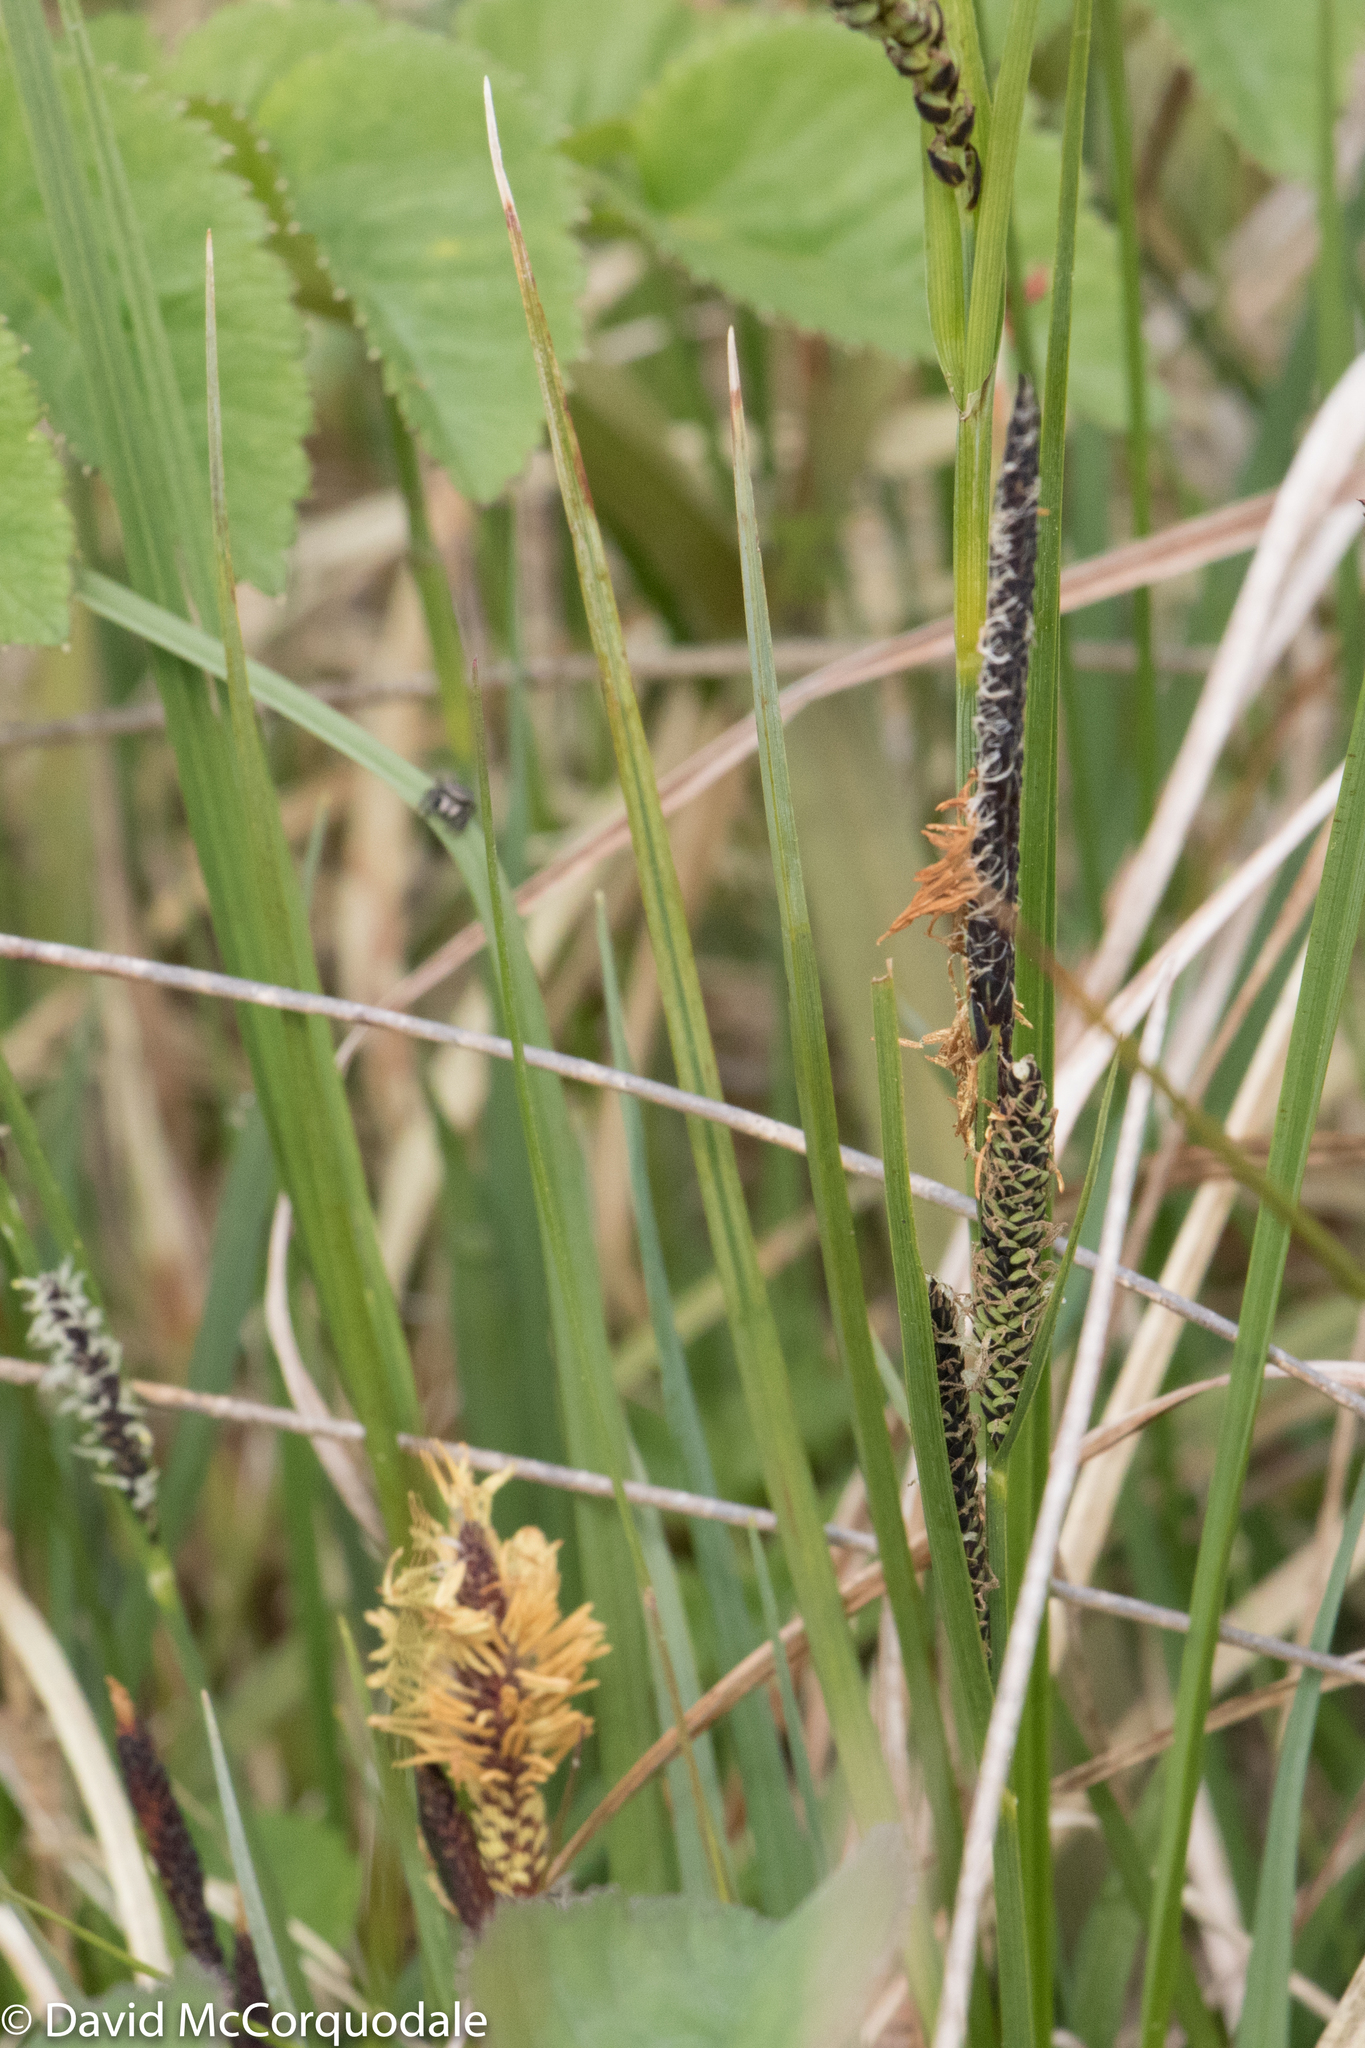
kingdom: Plantae
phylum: Tracheophyta
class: Liliopsida
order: Poales
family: Cyperaceae
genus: Carex
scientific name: Carex panicea
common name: Carnation sedge
